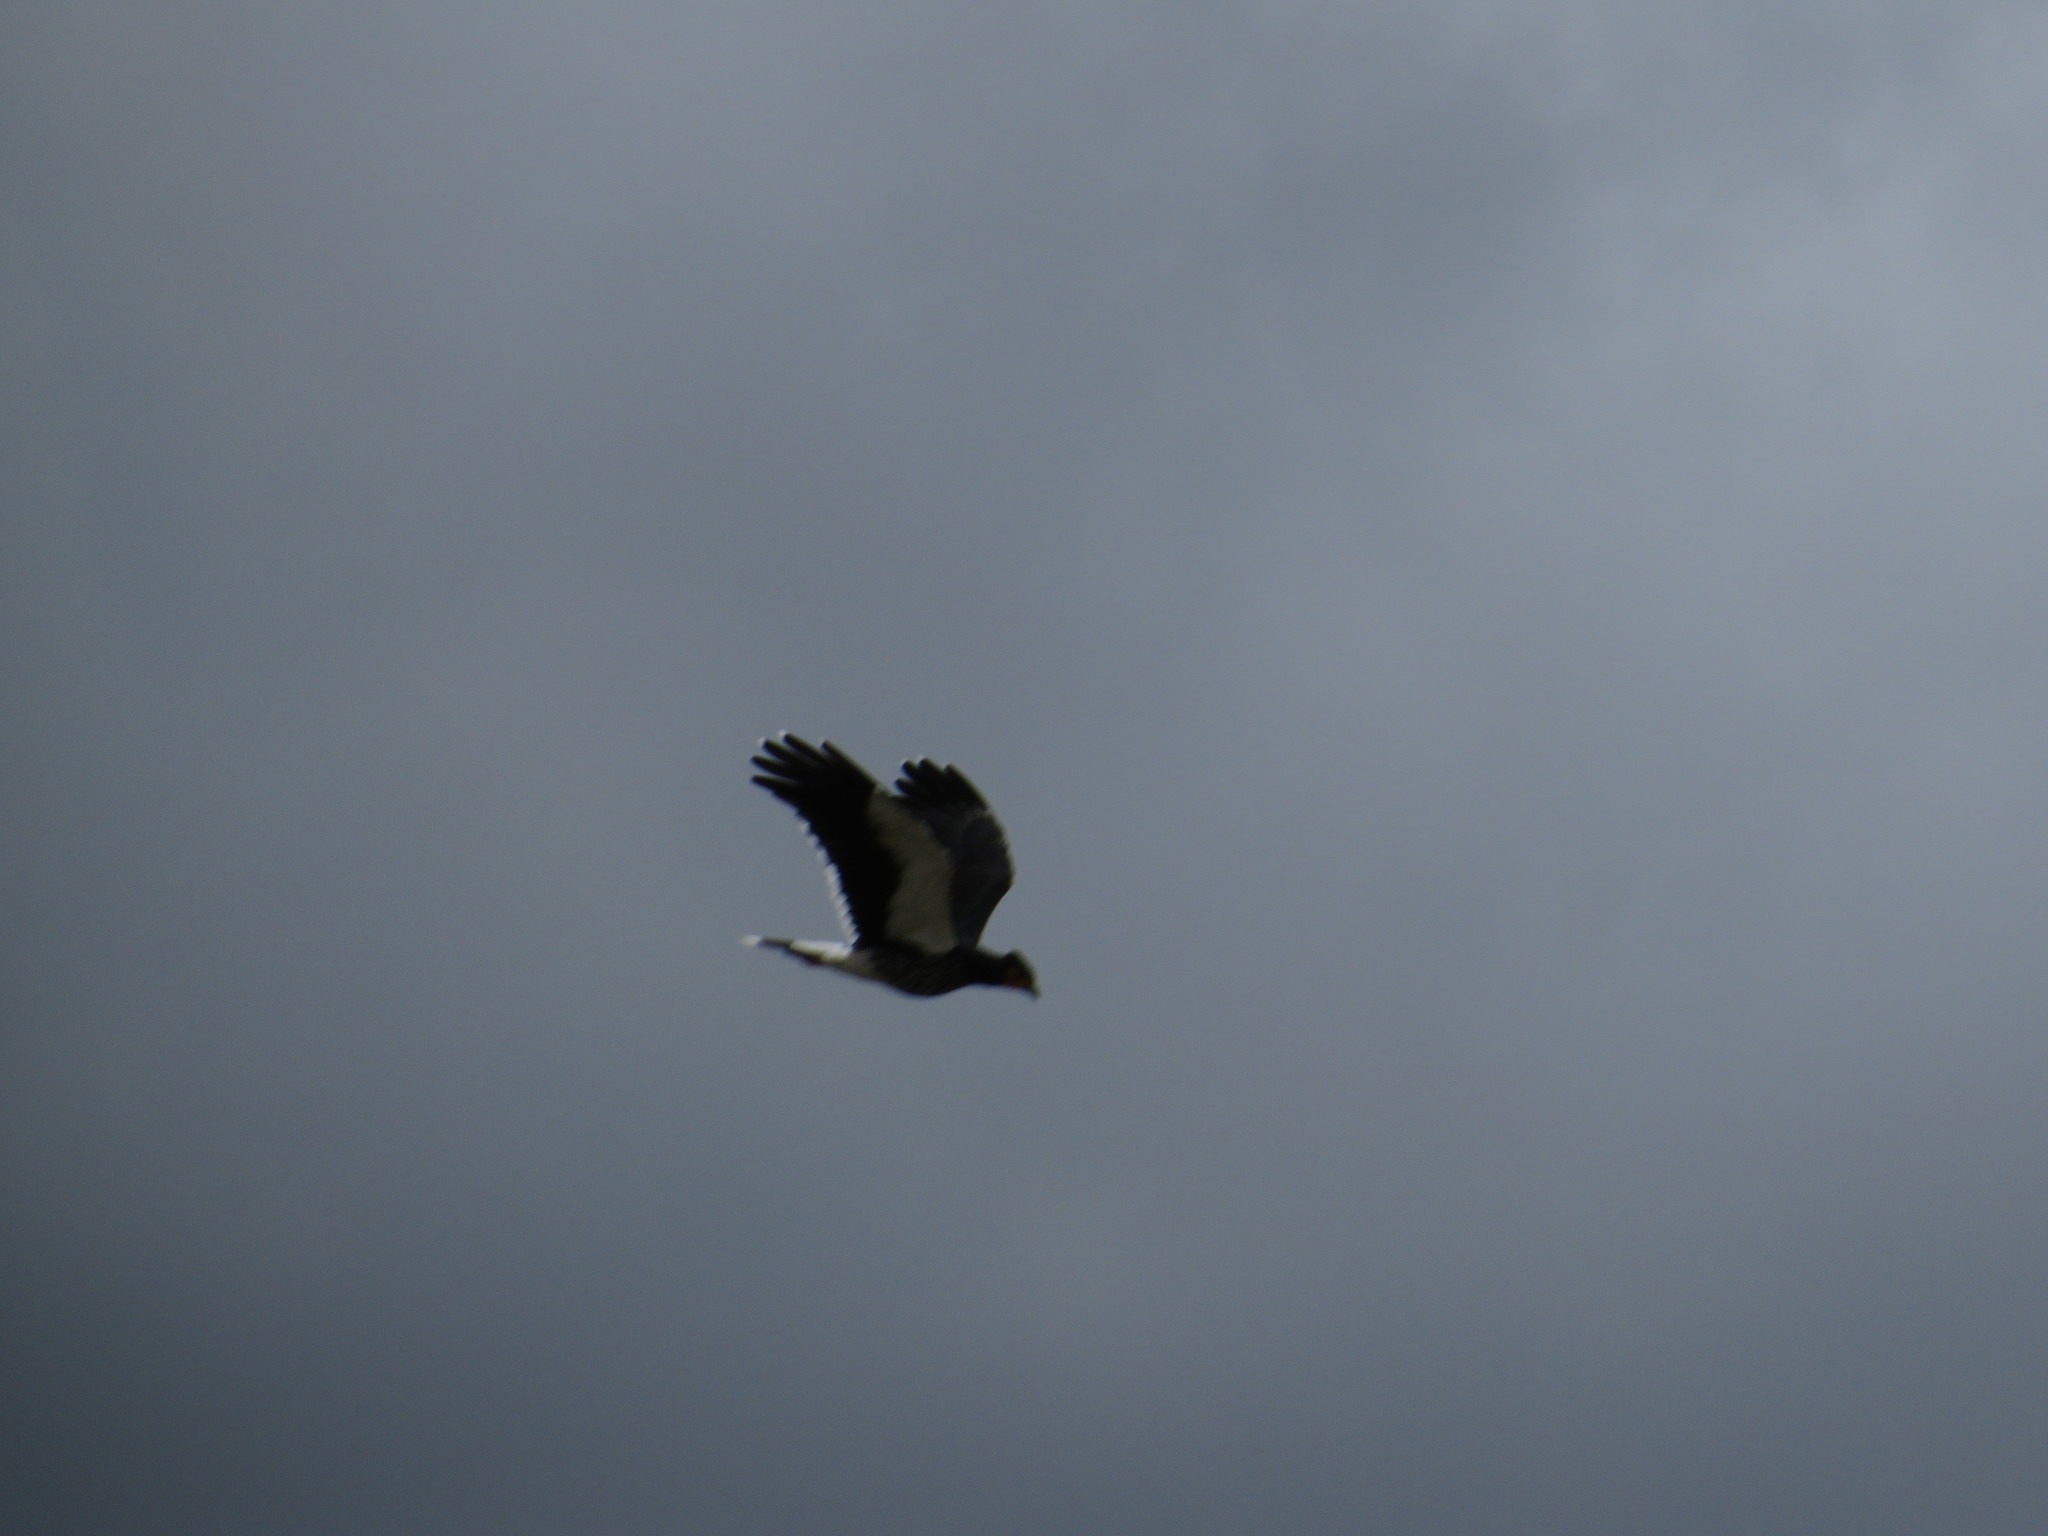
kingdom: Animalia
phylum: Chordata
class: Aves
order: Falconiformes
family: Falconidae
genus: Daptrius
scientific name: Daptrius
